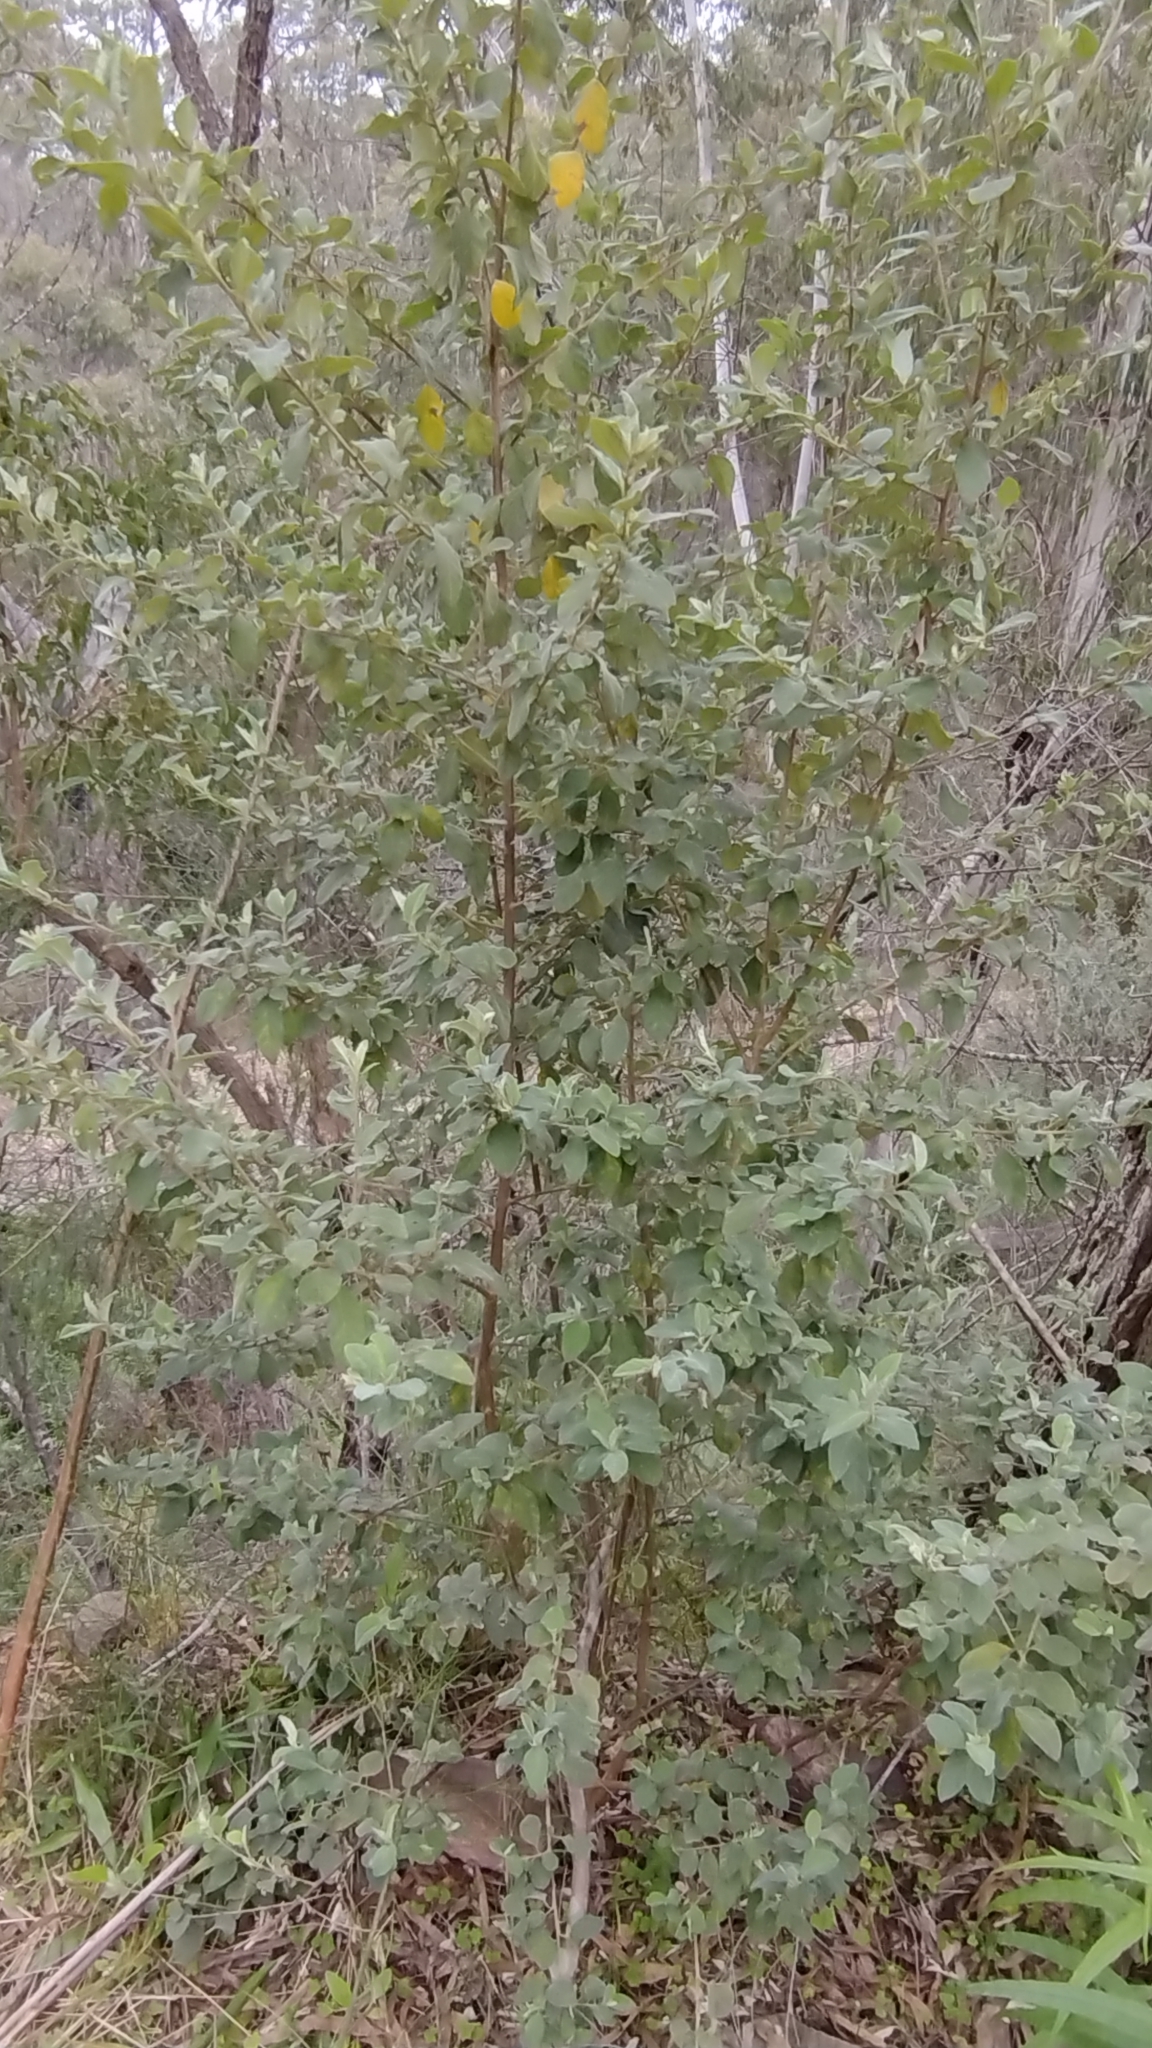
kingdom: Plantae
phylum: Tracheophyta
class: Magnoliopsida
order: Rosales
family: Rhamnaceae
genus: Pomaderris
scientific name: Pomaderris cinerea
